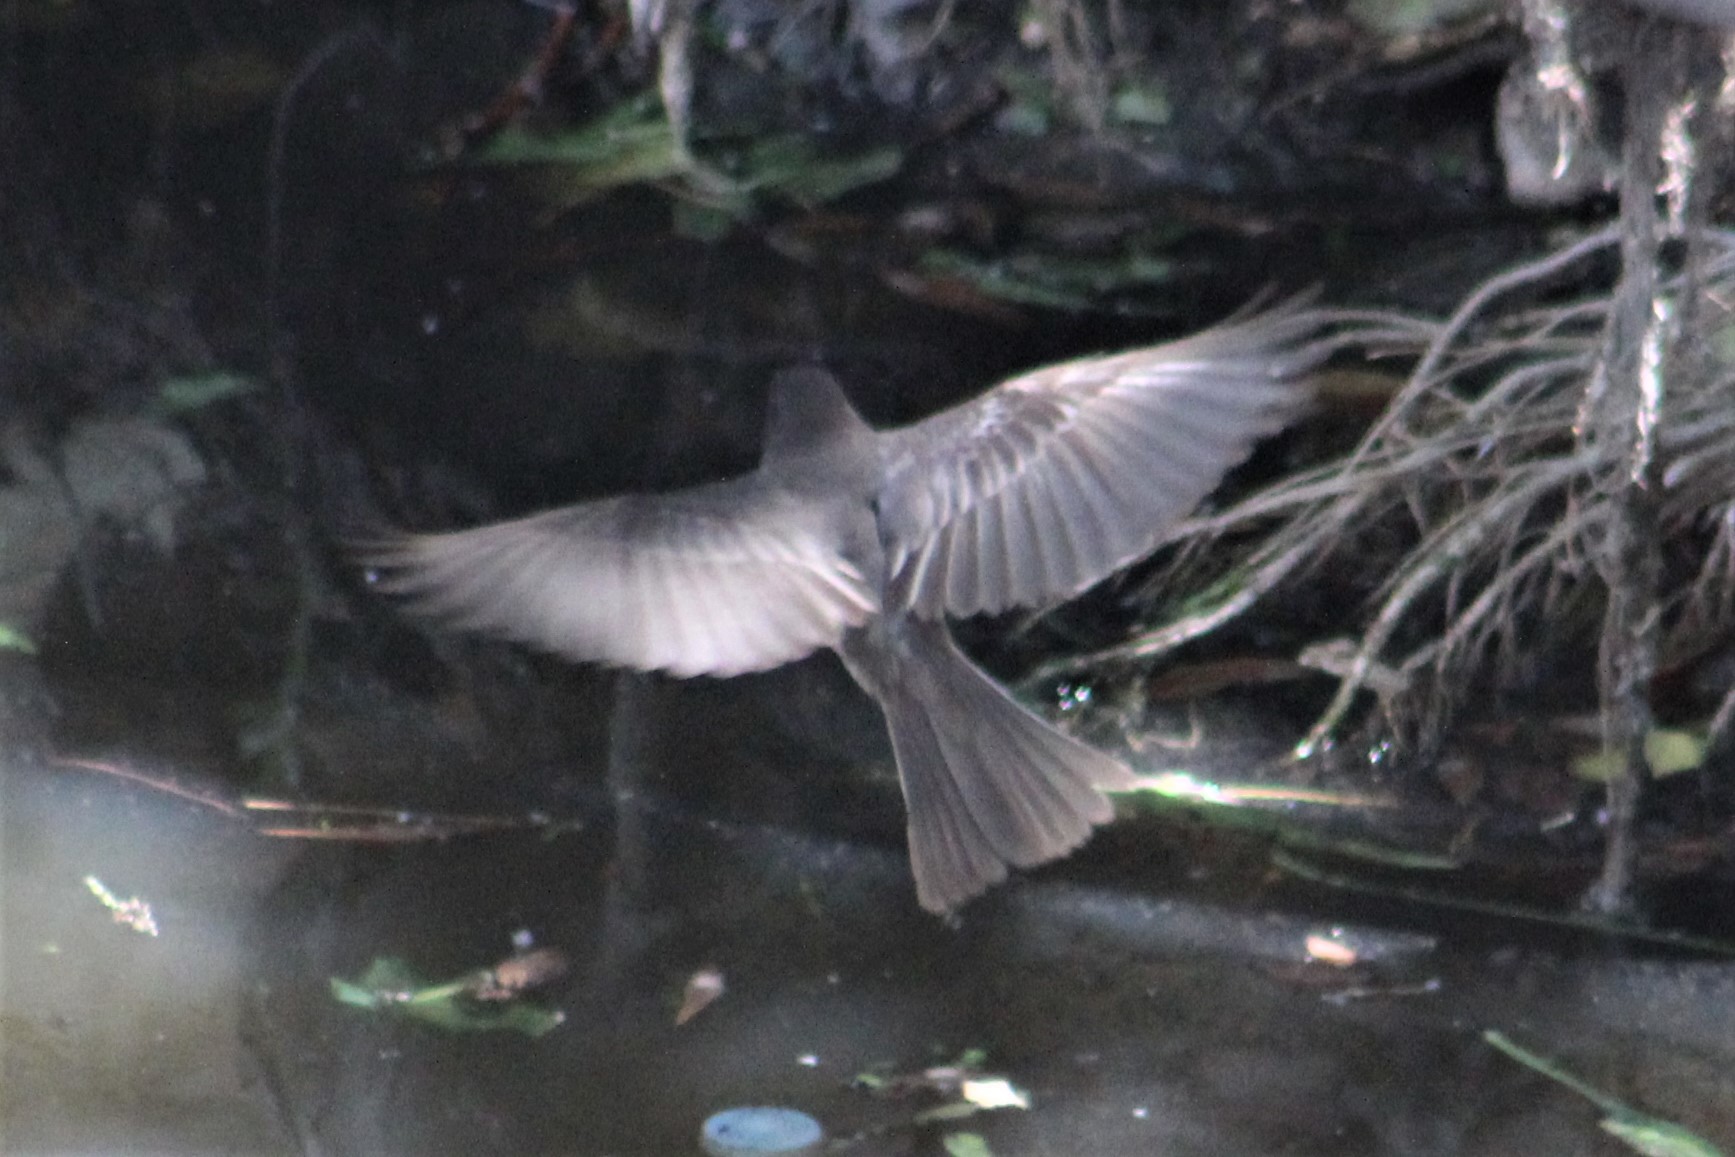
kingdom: Animalia
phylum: Chordata
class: Aves
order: Passeriformes
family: Tyrannidae
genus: Sayornis
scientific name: Sayornis nigricans
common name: Black phoebe
